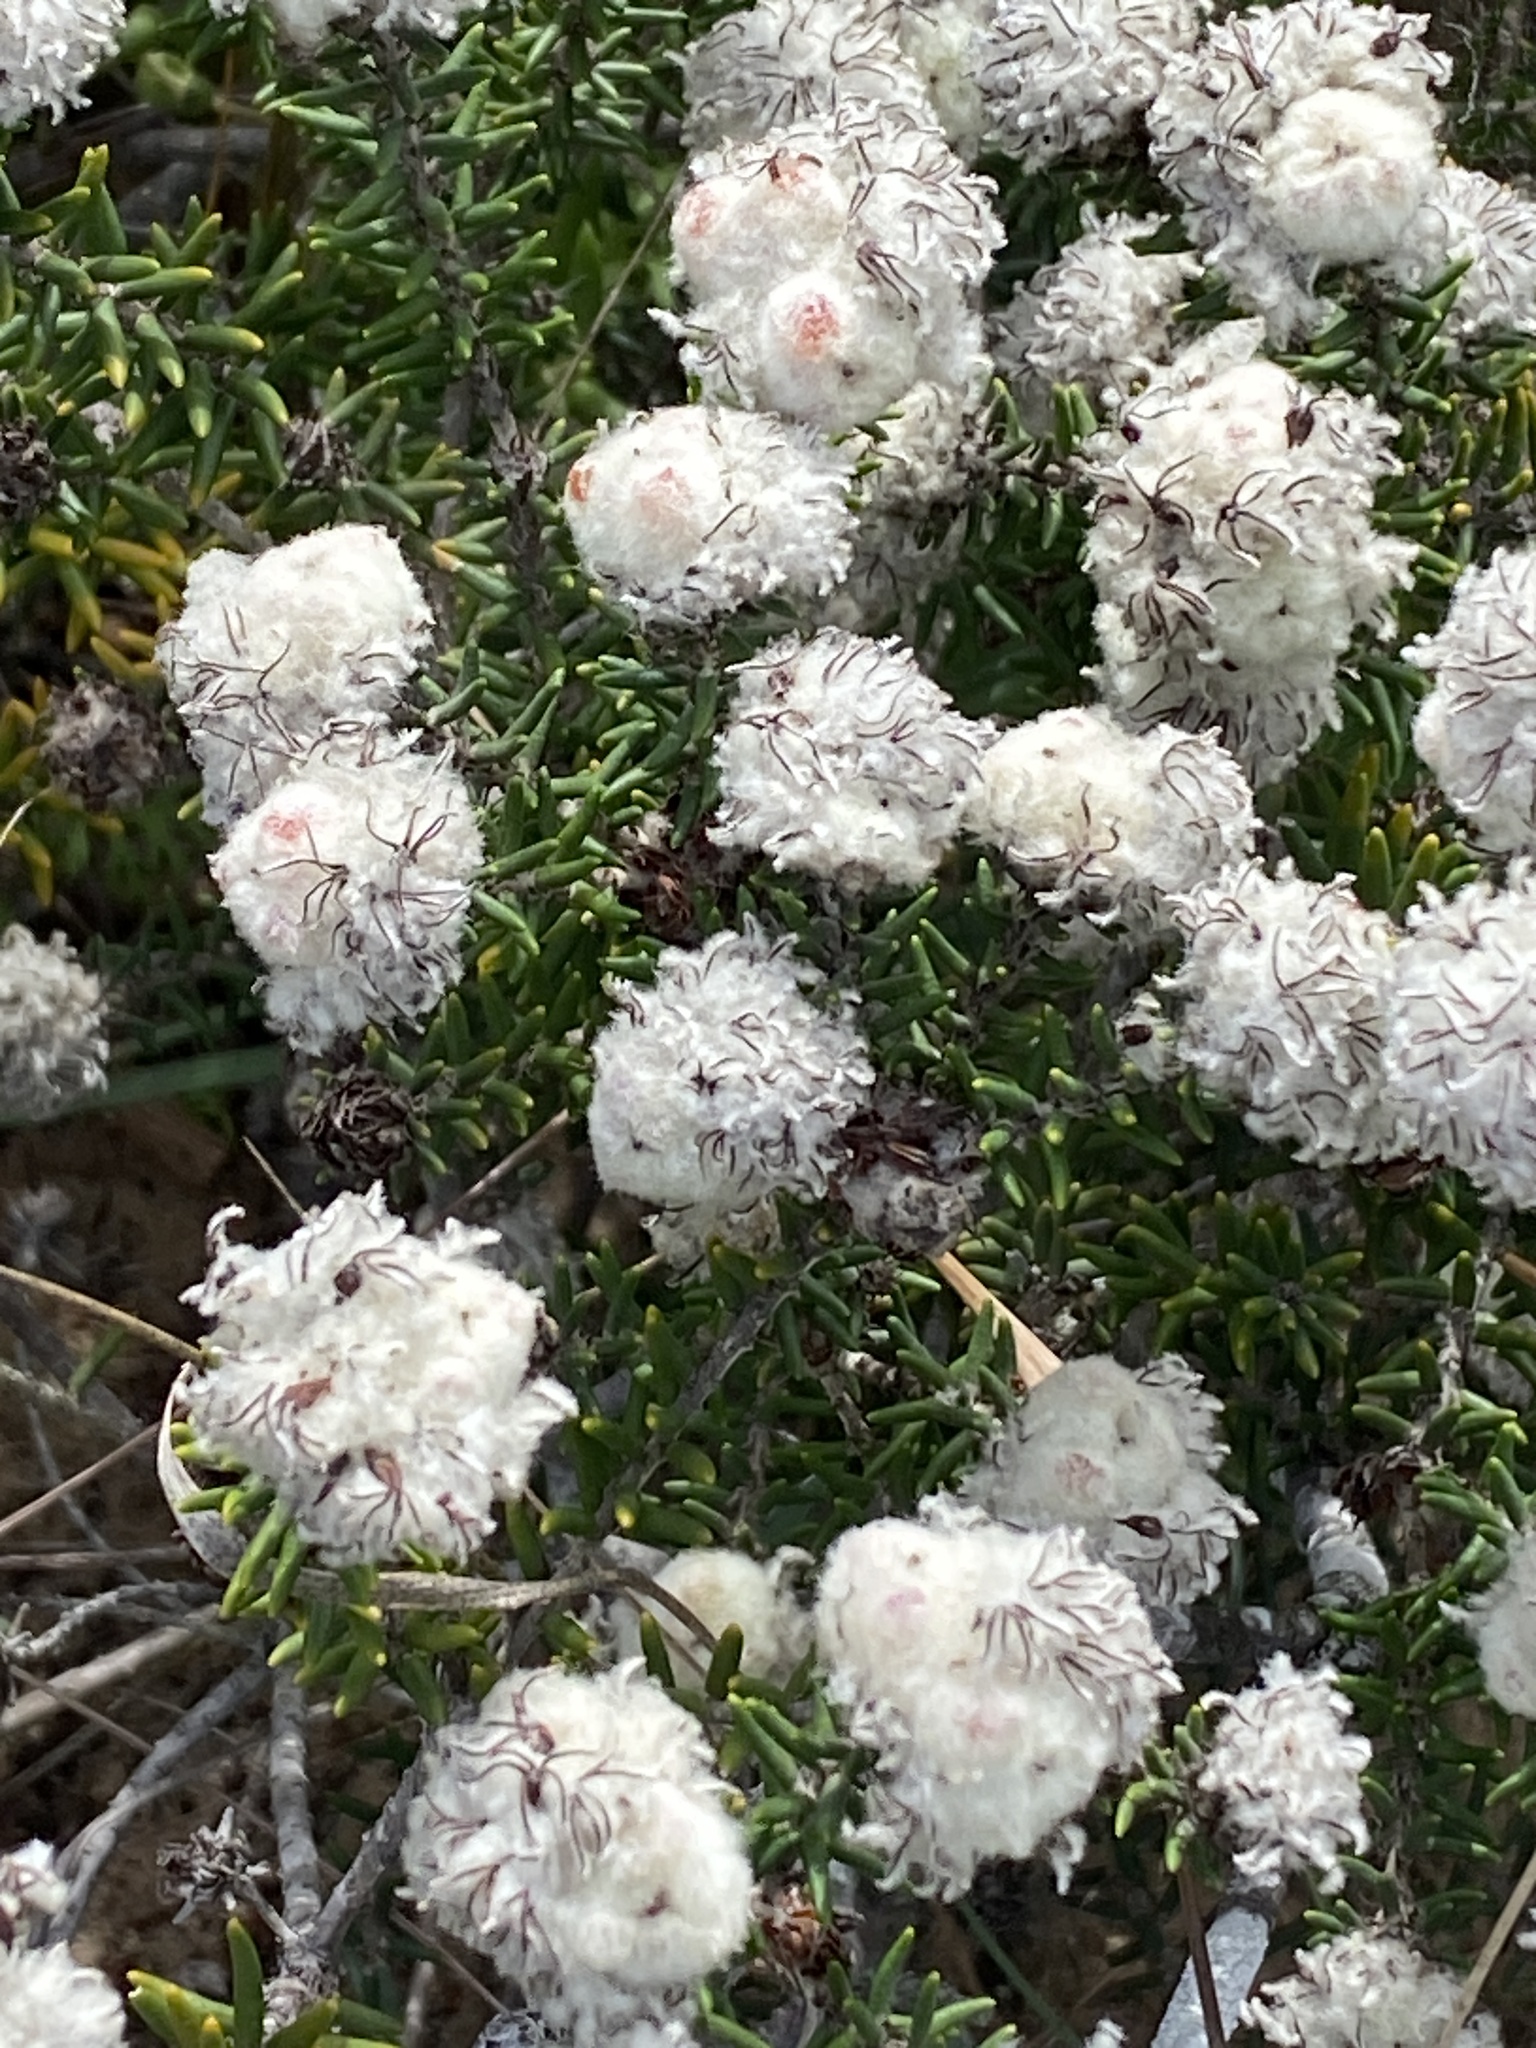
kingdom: Plantae
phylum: Tracheophyta
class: Magnoliopsida
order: Rosales
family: Rhamnaceae
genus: Trichocephalus
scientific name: Trichocephalus stipularis
